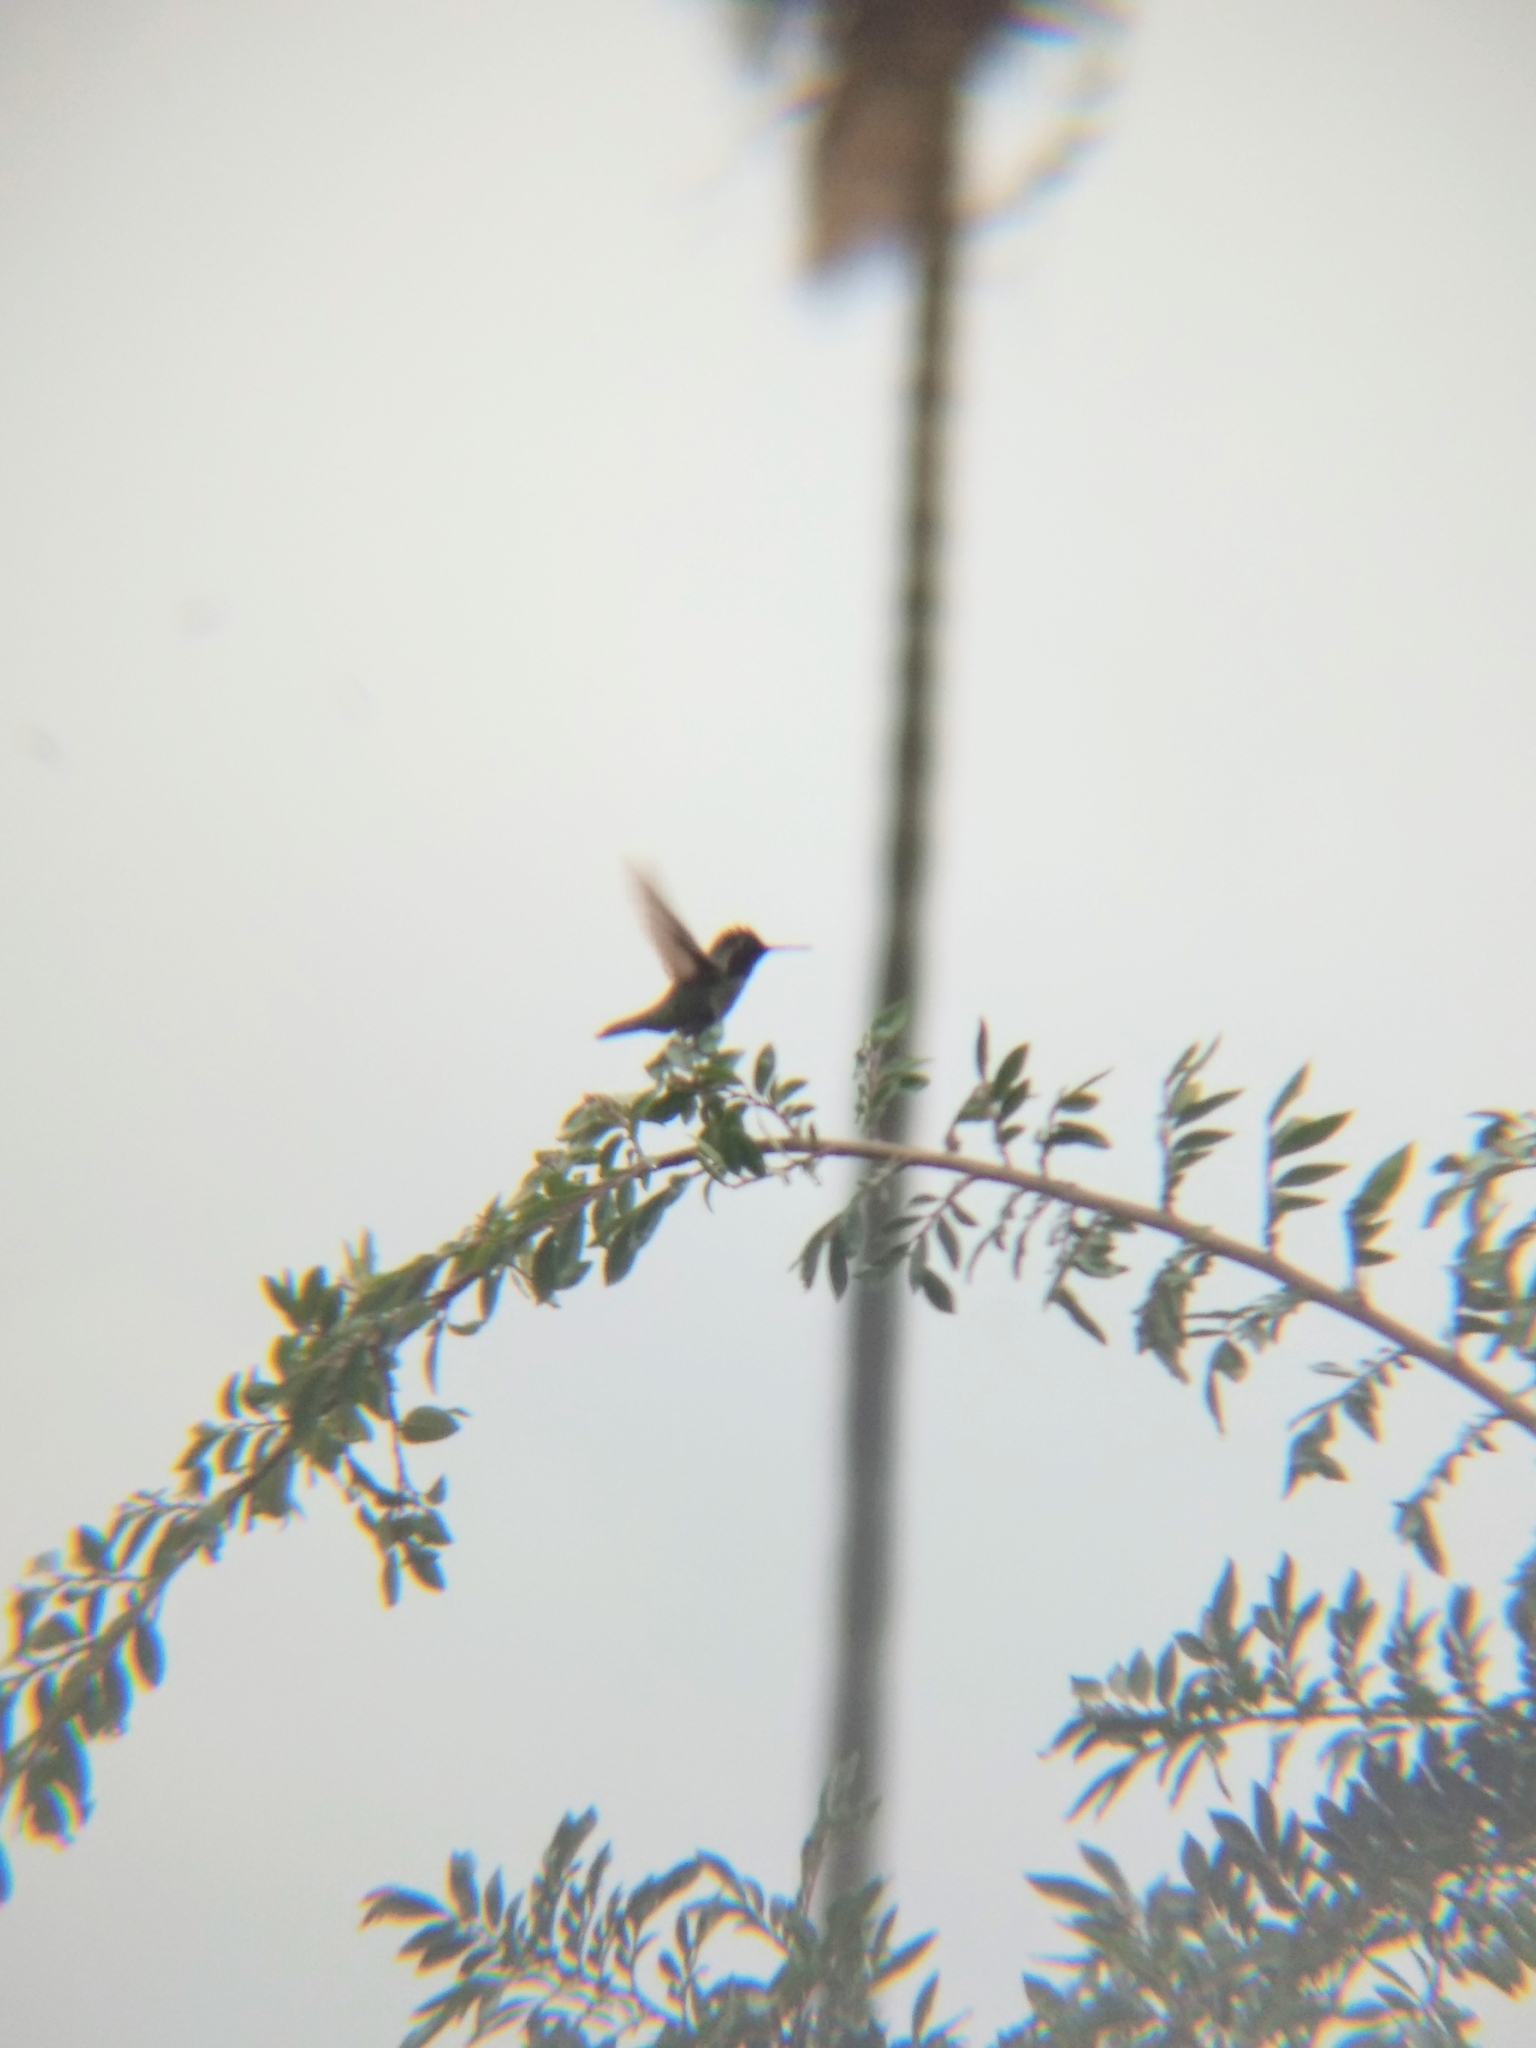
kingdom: Animalia
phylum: Chordata
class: Aves
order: Apodiformes
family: Trochilidae
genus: Calypte
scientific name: Calypte anna
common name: Anna's hummingbird
